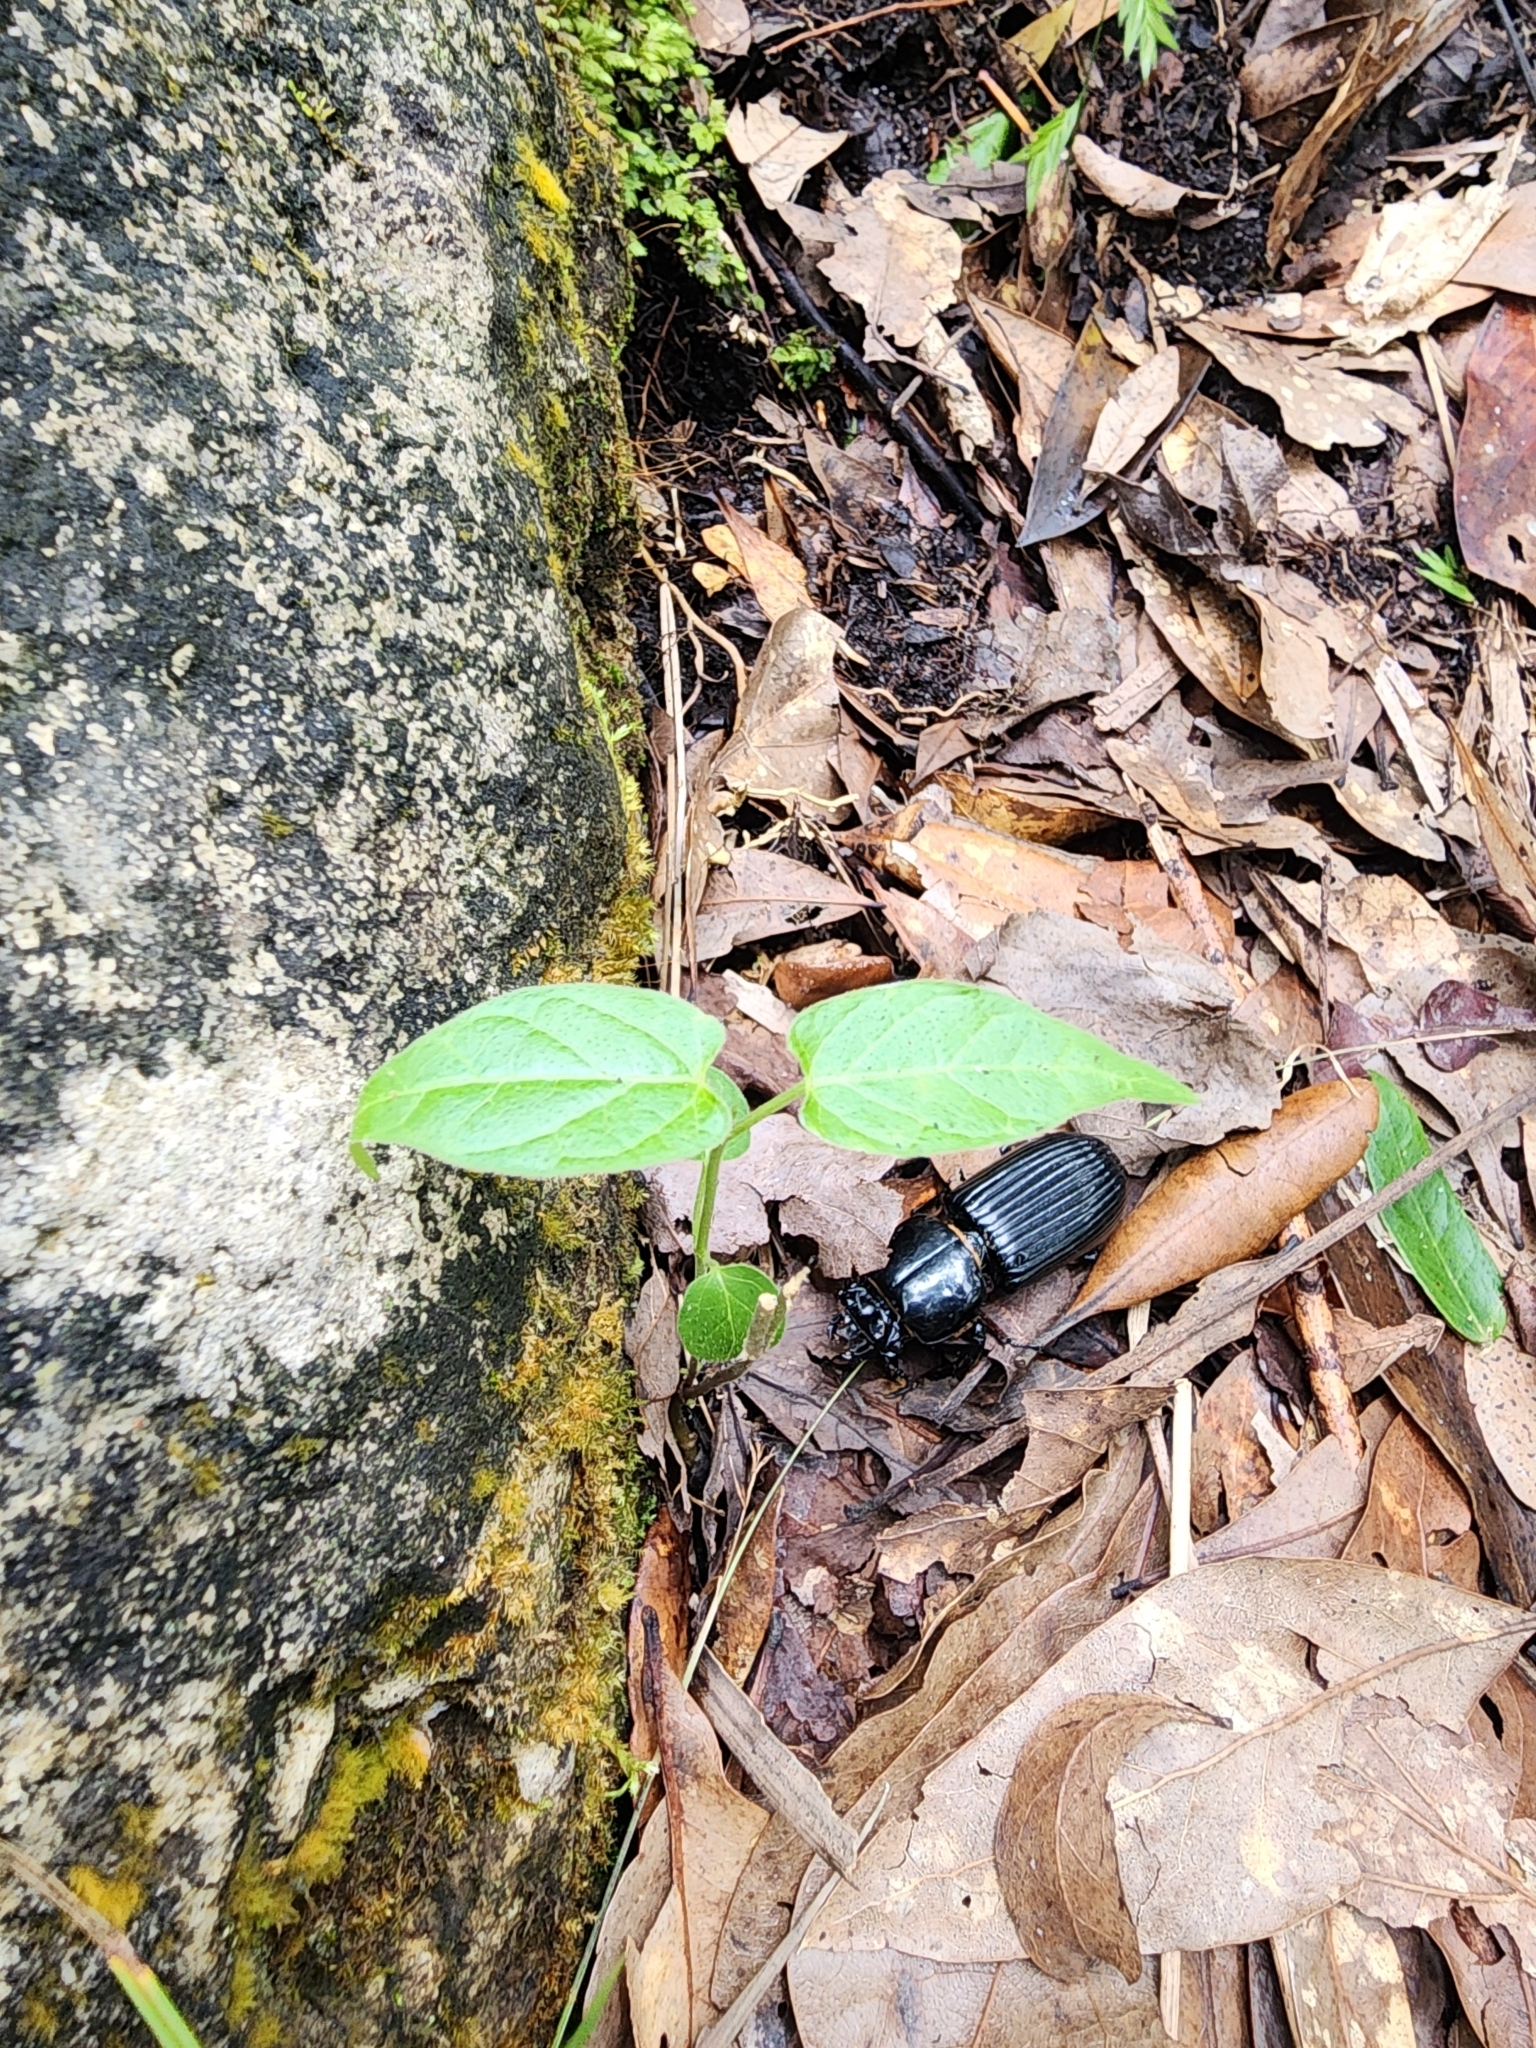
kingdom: Animalia
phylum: Arthropoda
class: Insecta
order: Coleoptera
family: Passalidae
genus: Odontotaenius
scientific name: Odontotaenius disjunctus
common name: Patent leather beetle
